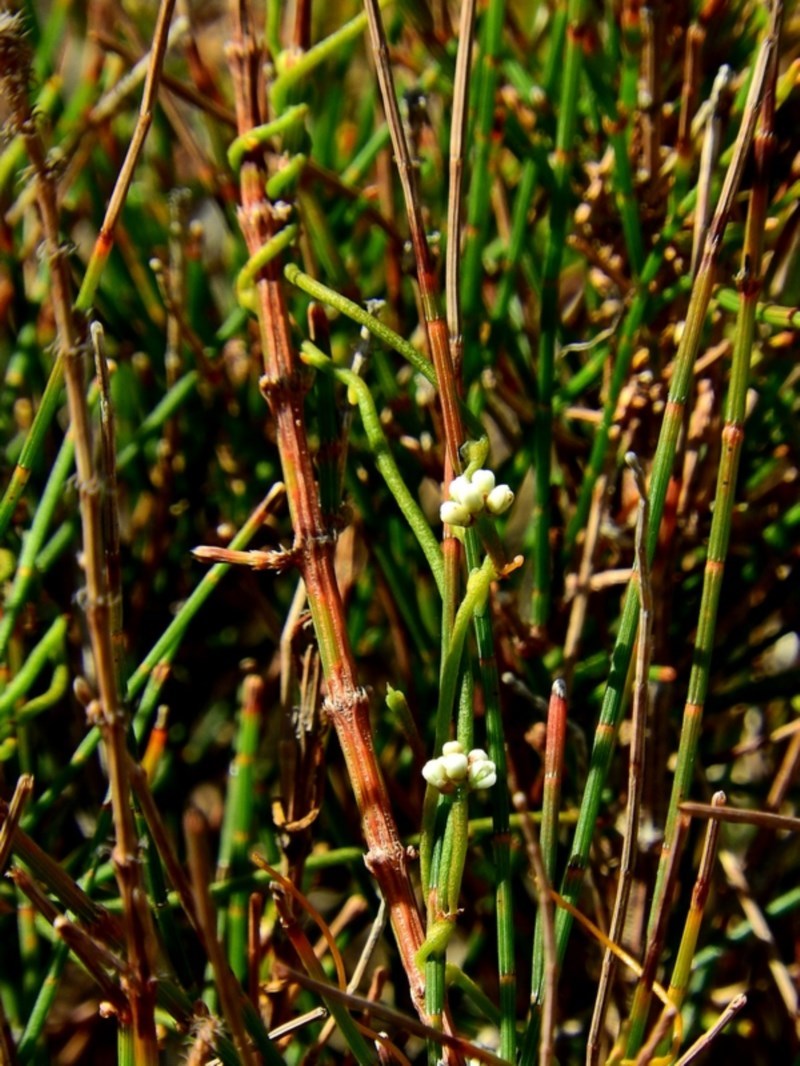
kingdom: Plantae
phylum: Tracheophyta
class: Magnoliopsida
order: Laurales
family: Lauraceae
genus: Cassytha
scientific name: Cassytha glabella
